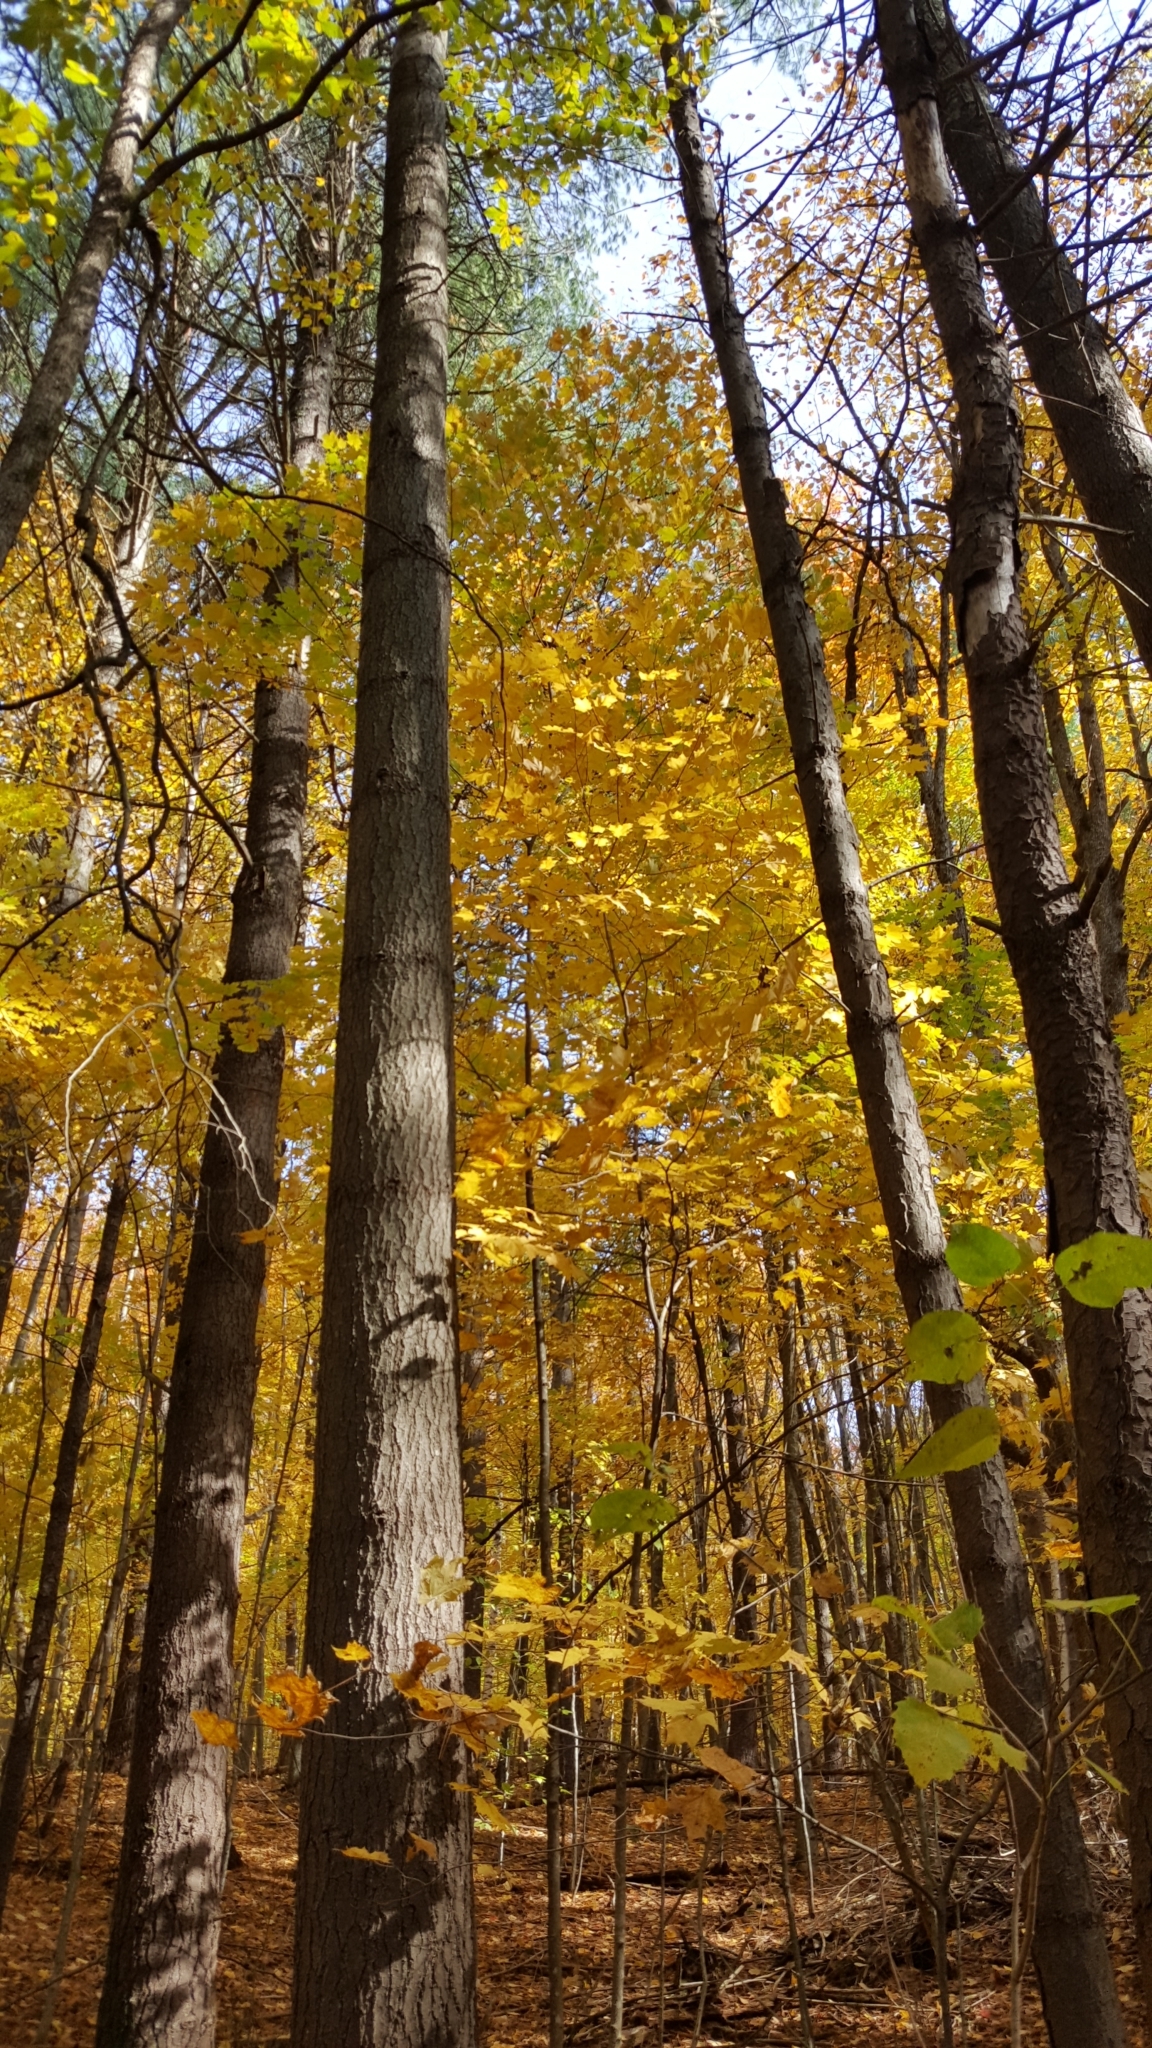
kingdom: Plantae
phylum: Tracheophyta
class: Magnoliopsida
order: Sapindales
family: Sapindaceae
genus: Acer
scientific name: Acer saccharum
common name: Sugar maple
